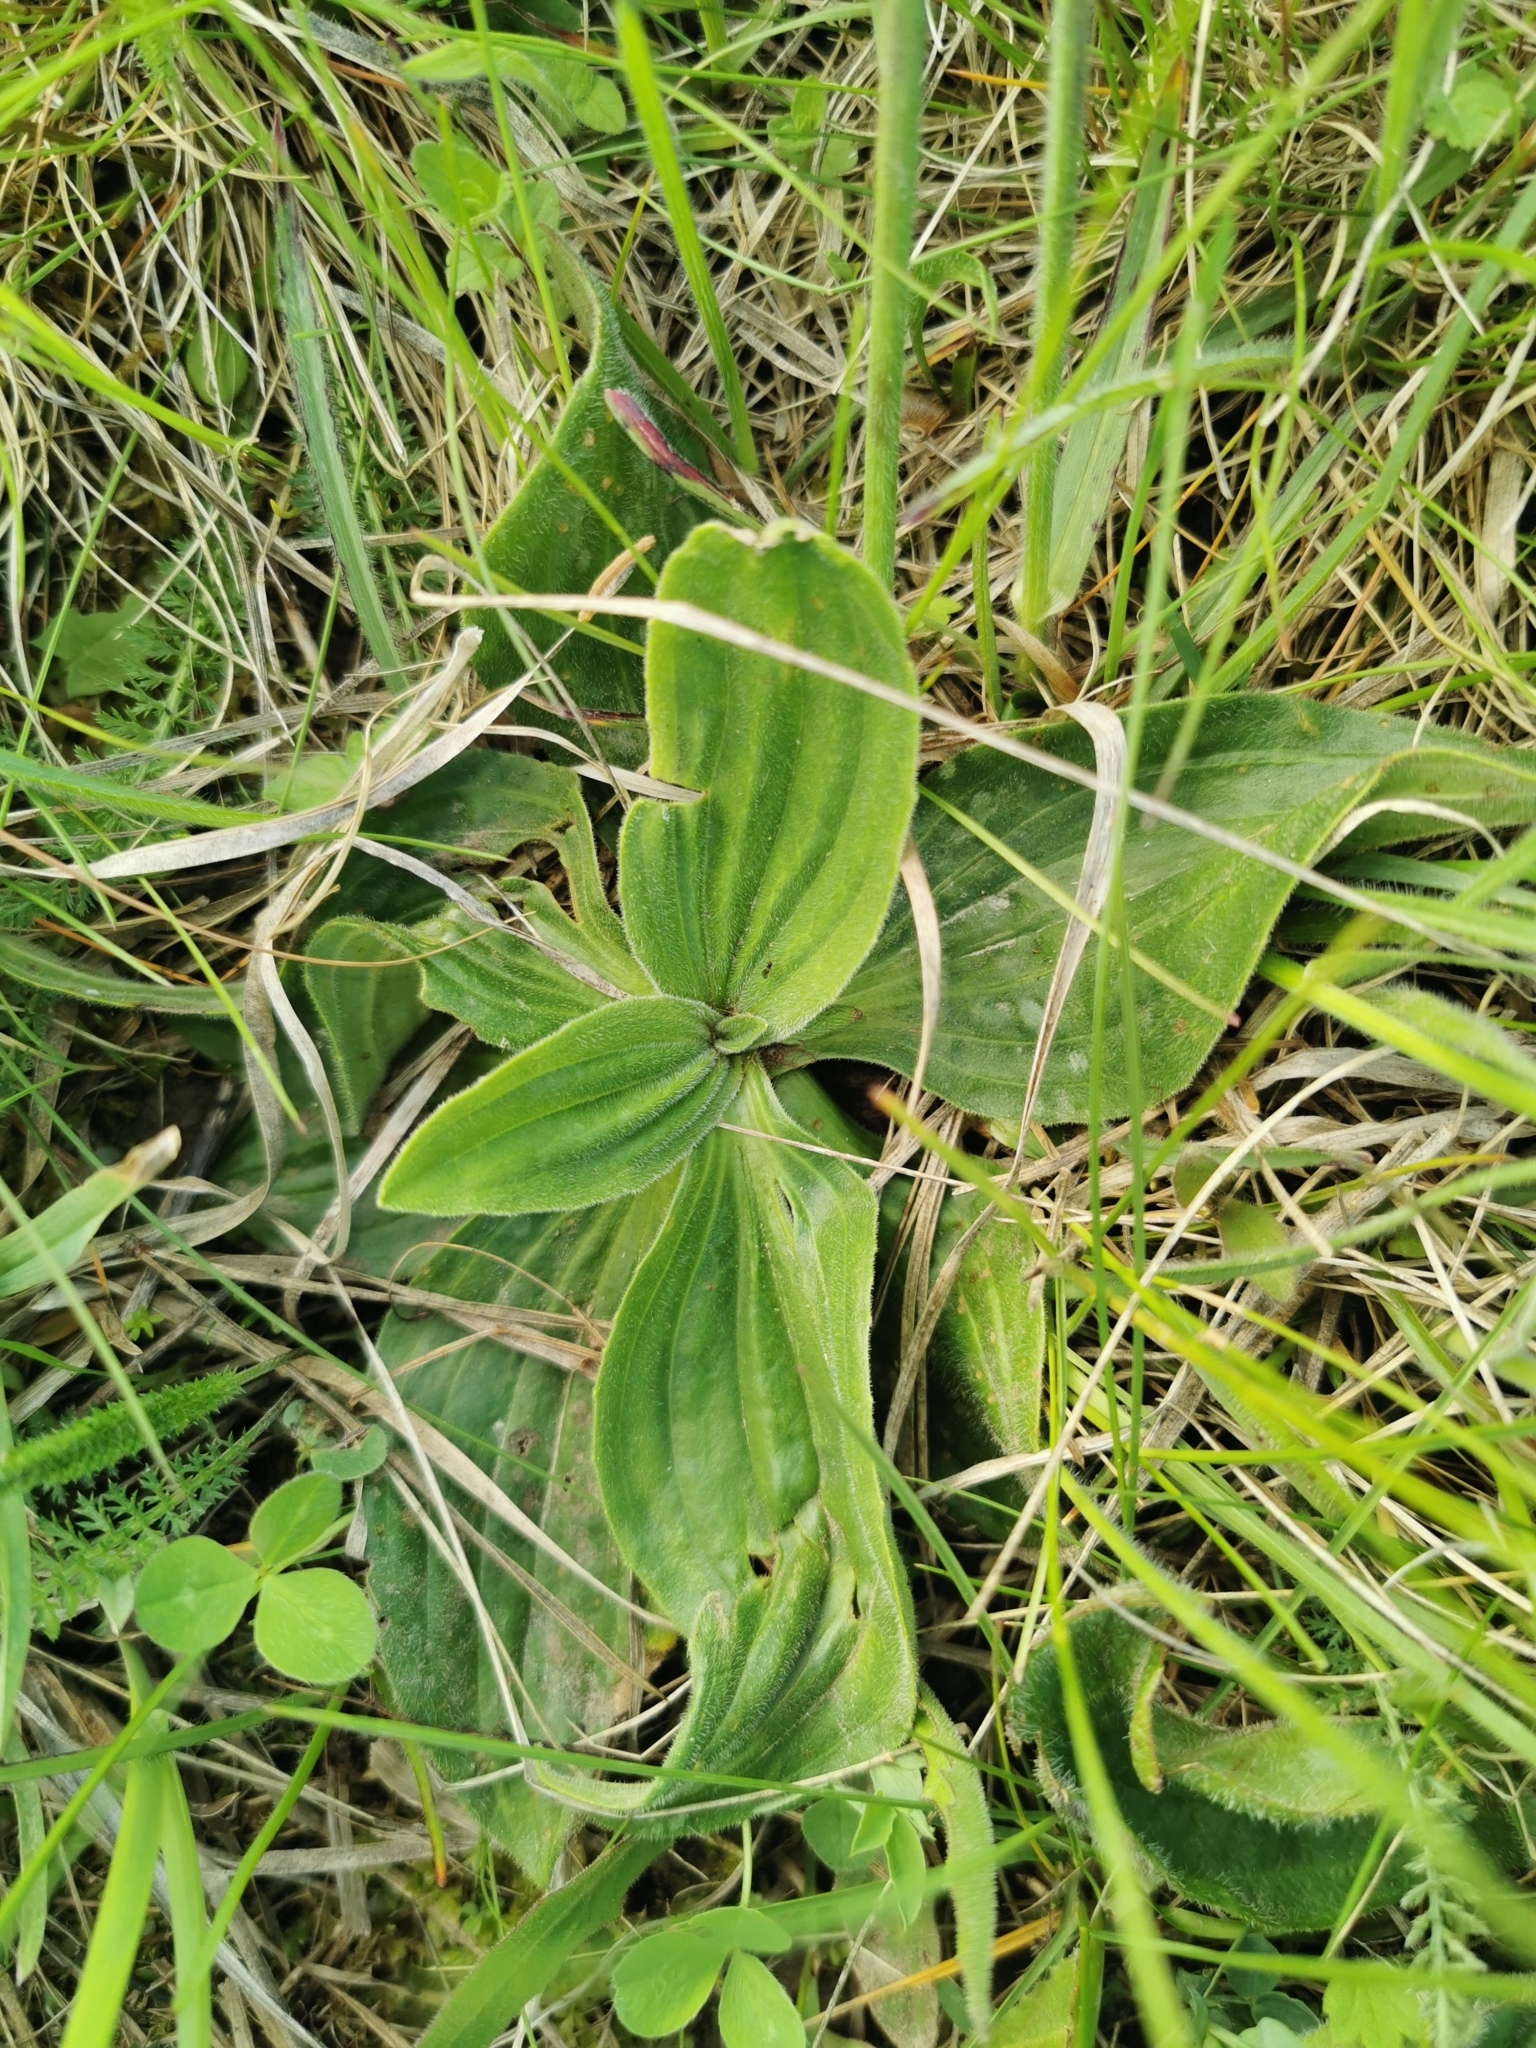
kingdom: Plantae
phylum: Tracheophyta
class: Magnoliopsida
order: Lamiales
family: Plantaginaceae
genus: Plantago
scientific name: Plantago media
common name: Hoary plantain
